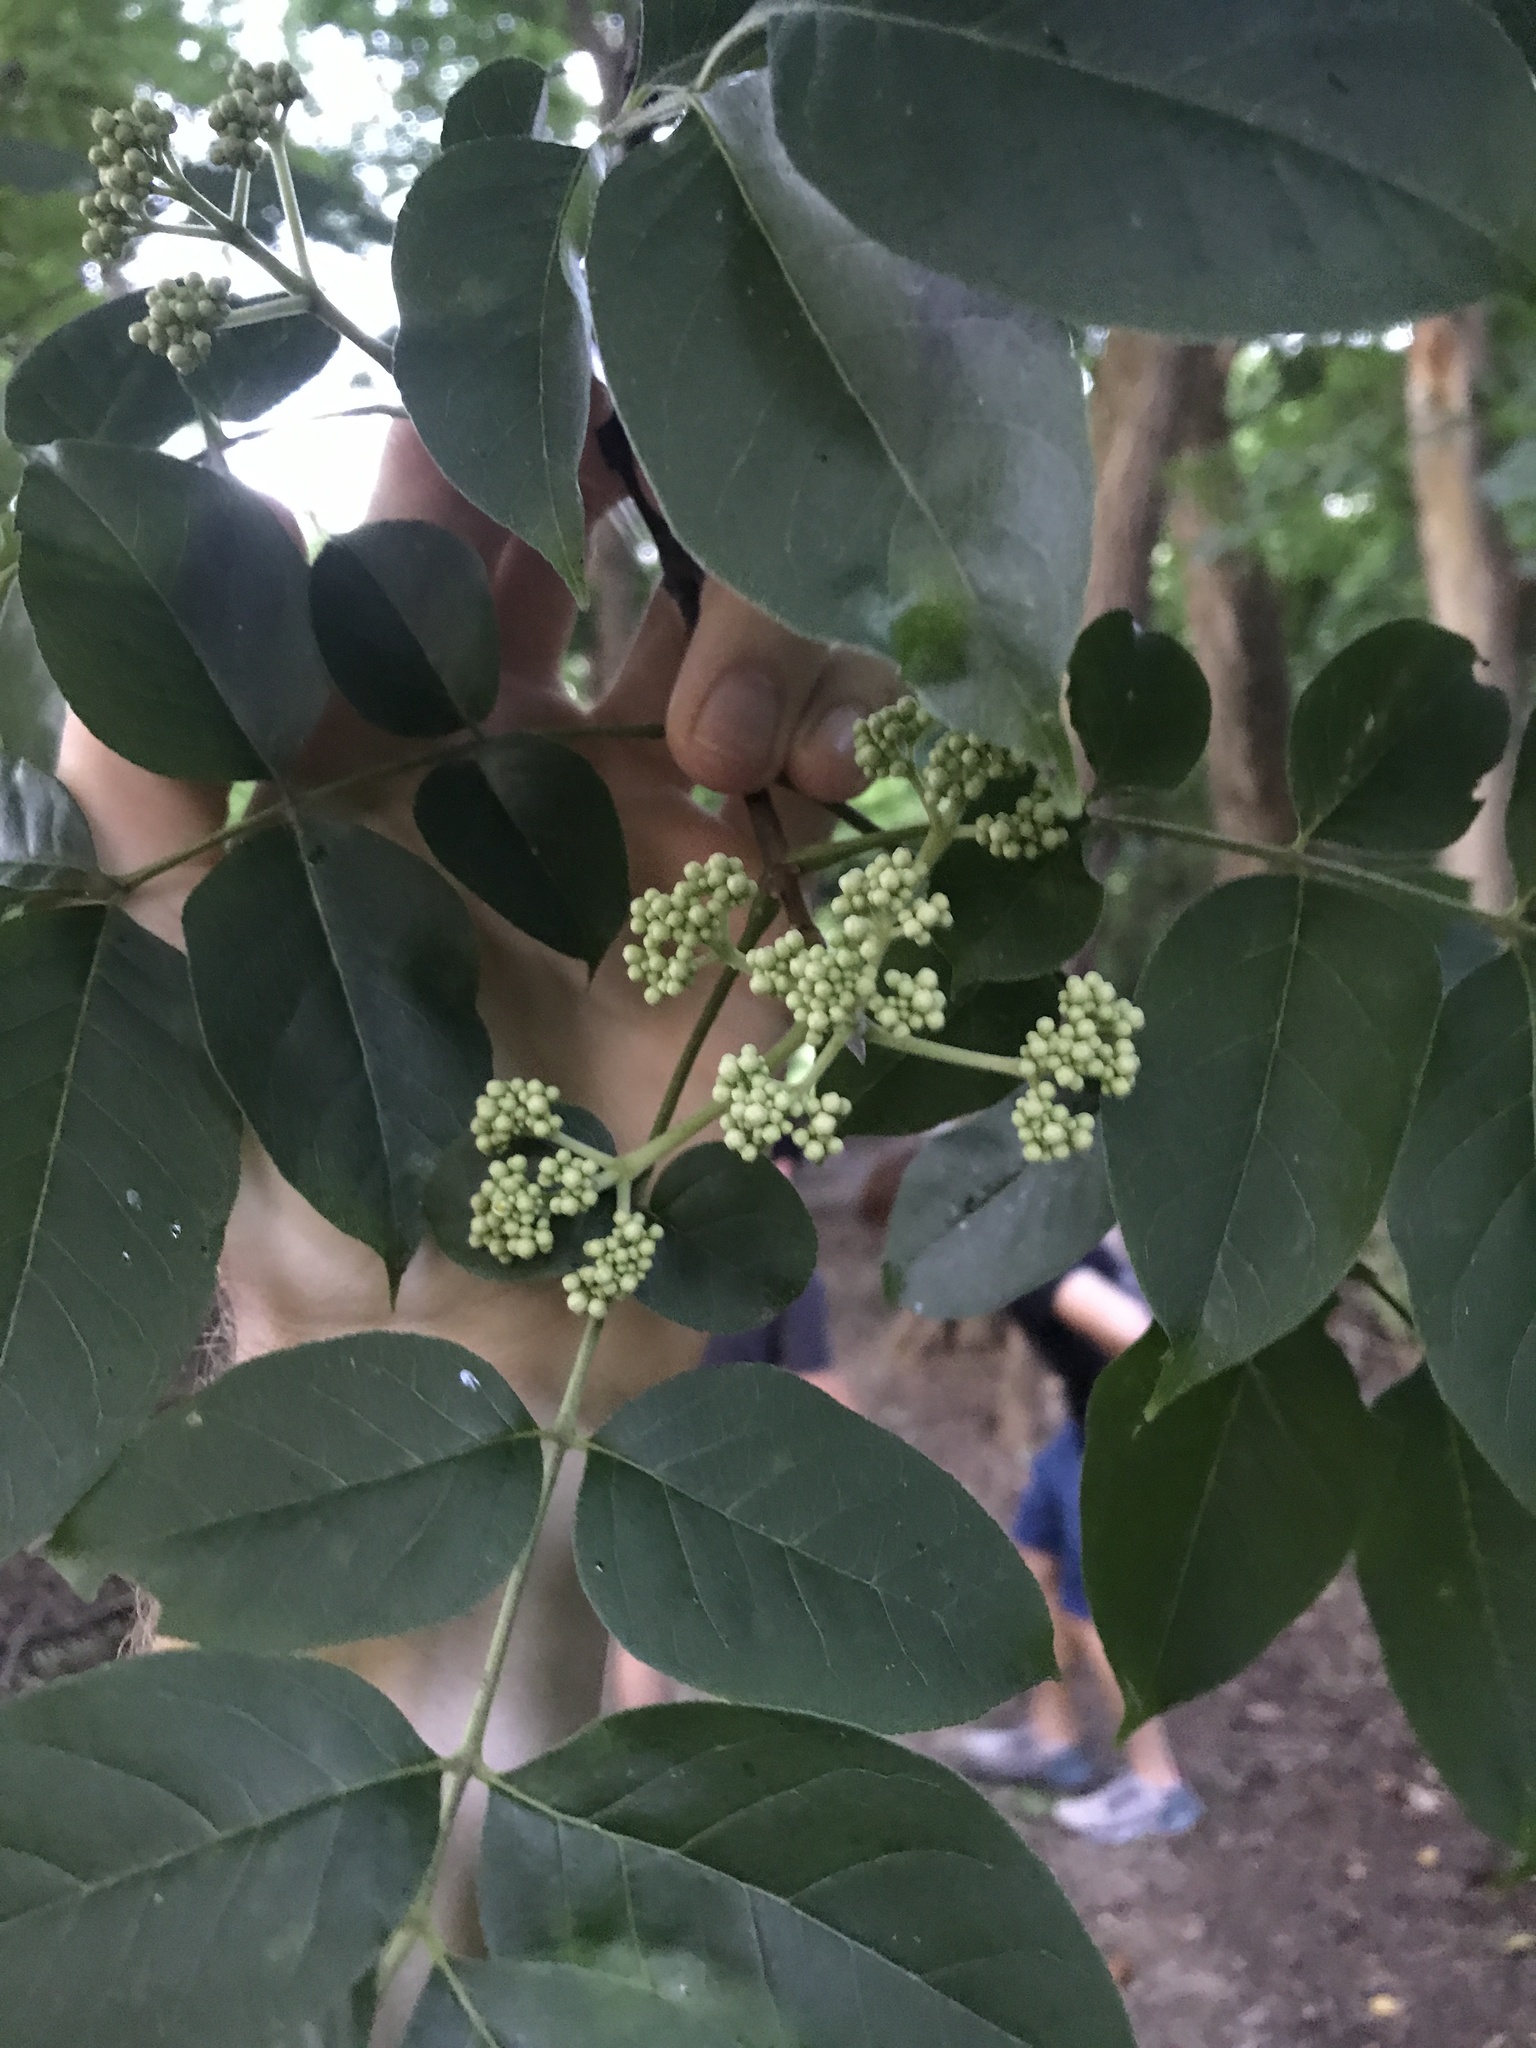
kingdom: Plantae
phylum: Tracheophyta
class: Magnoliopsida
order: Sapindales
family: Rutaceae
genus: Tetradium
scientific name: Tetradium daniellii
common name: Bee-bee tree
